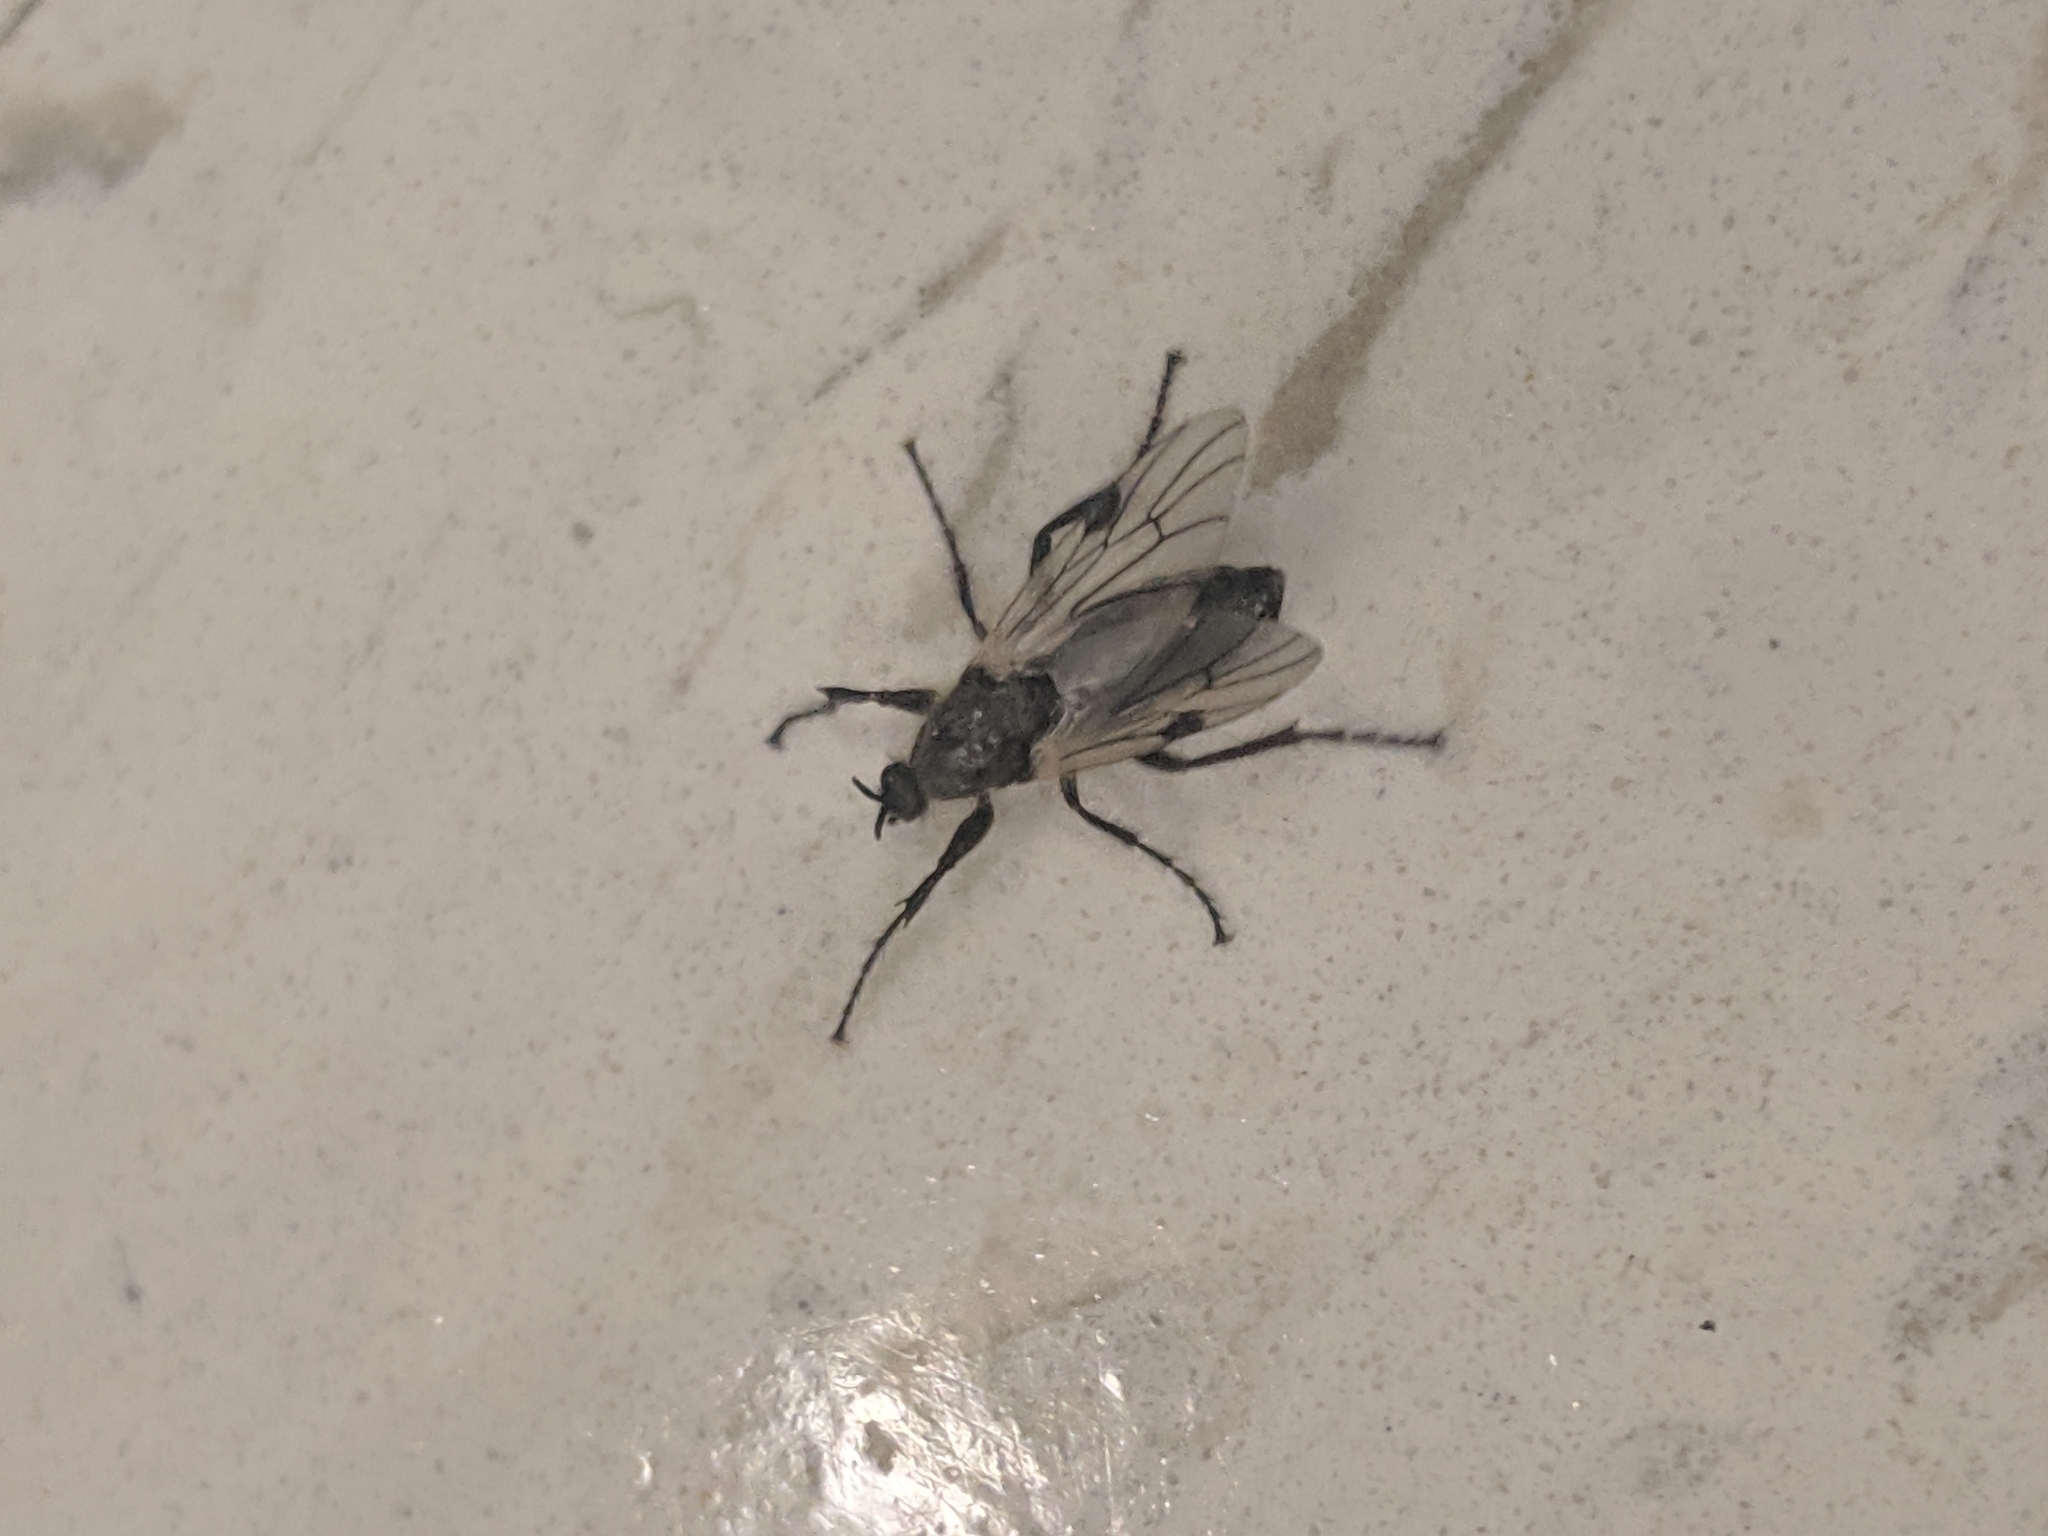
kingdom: Animalia
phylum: Arthropoda
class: Insecta
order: Diptera
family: Bibionidae
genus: Bibio
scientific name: Bibio albipennis
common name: White-winged march fly
